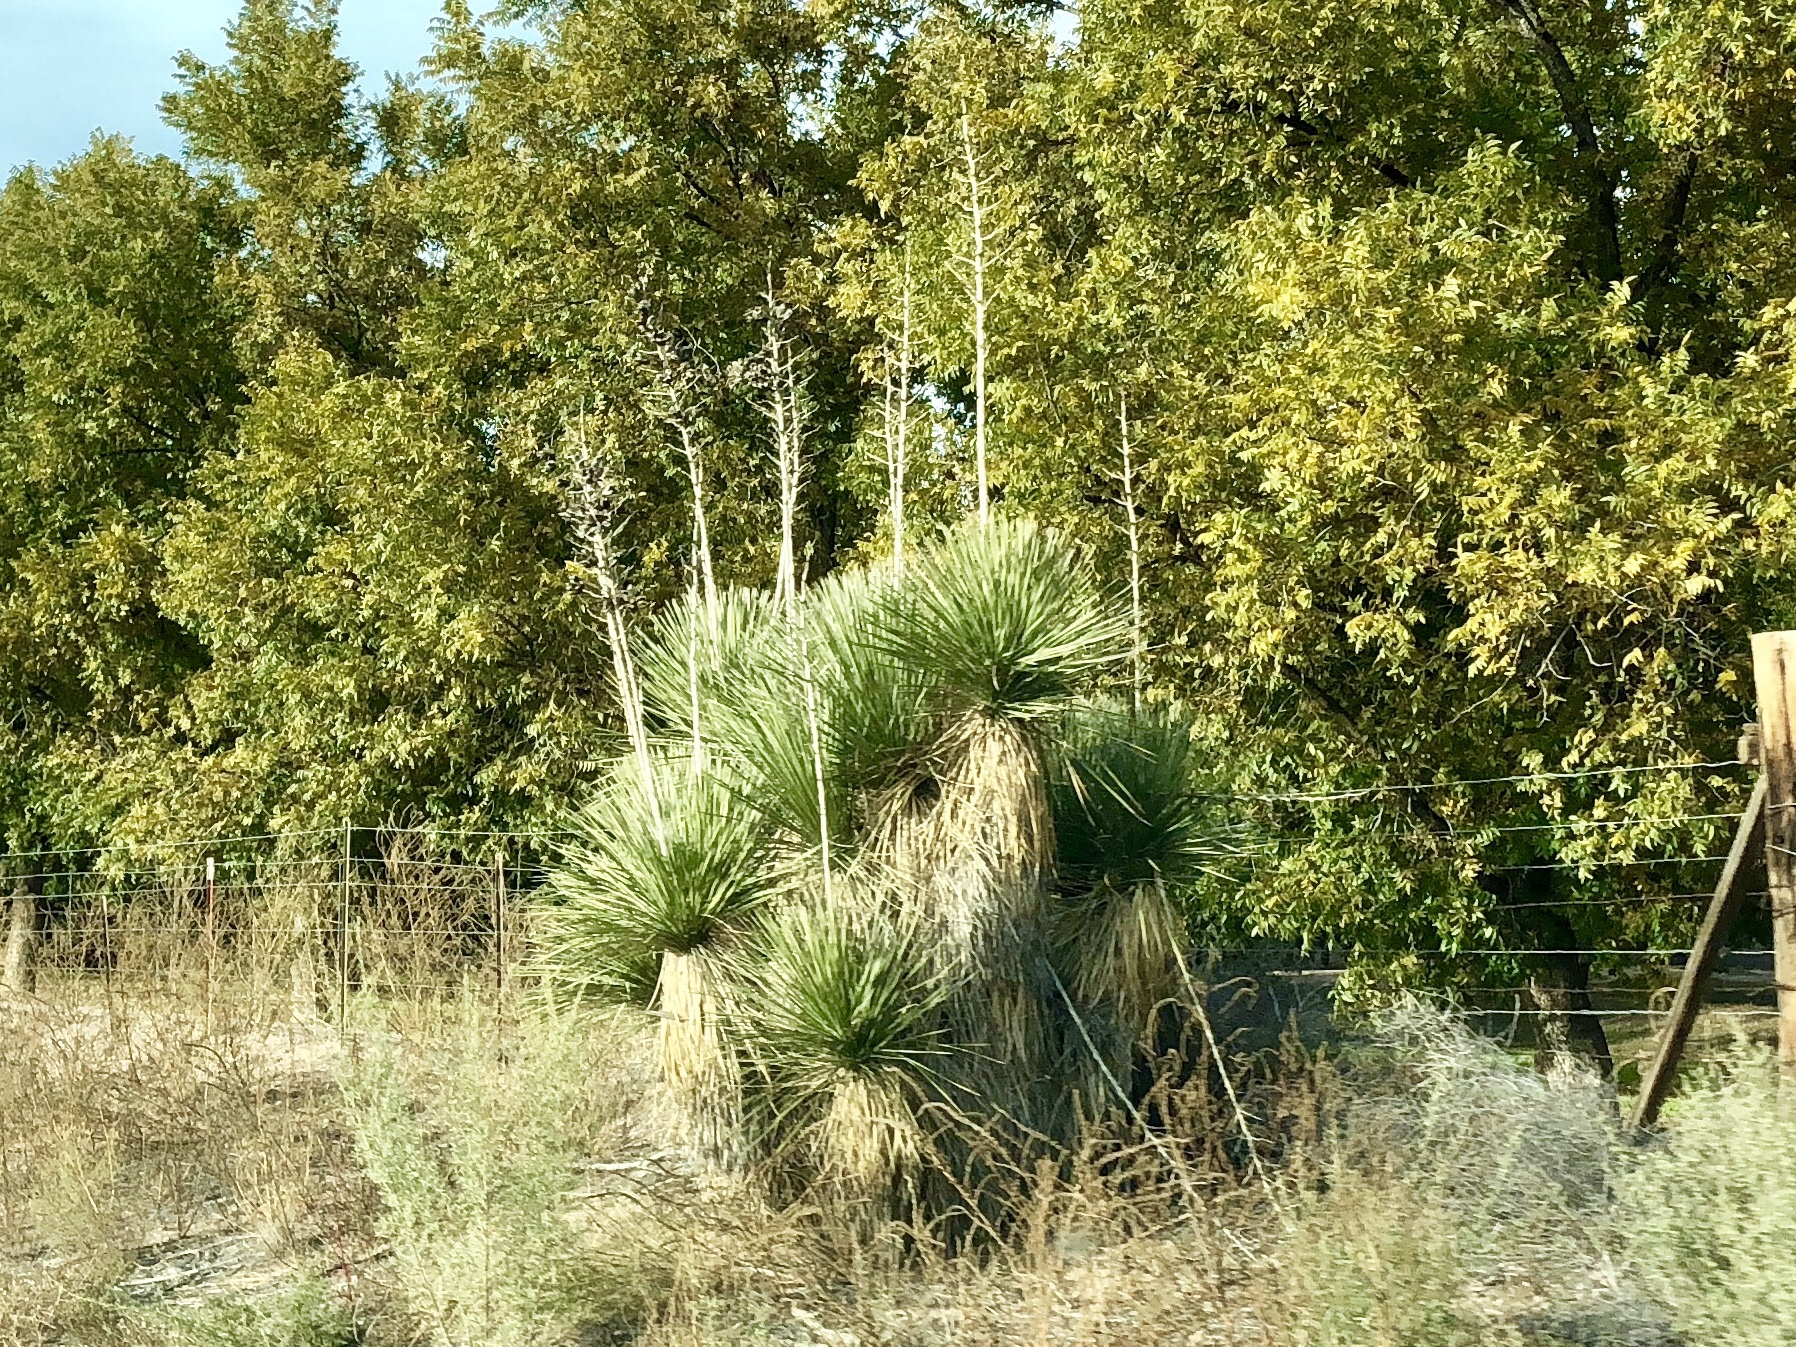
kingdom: Plantae
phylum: Tracheophyta
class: Liliopsida
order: Asparagales
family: Asparagaceae
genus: Yucca
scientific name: Yucca elata
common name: Palmella
